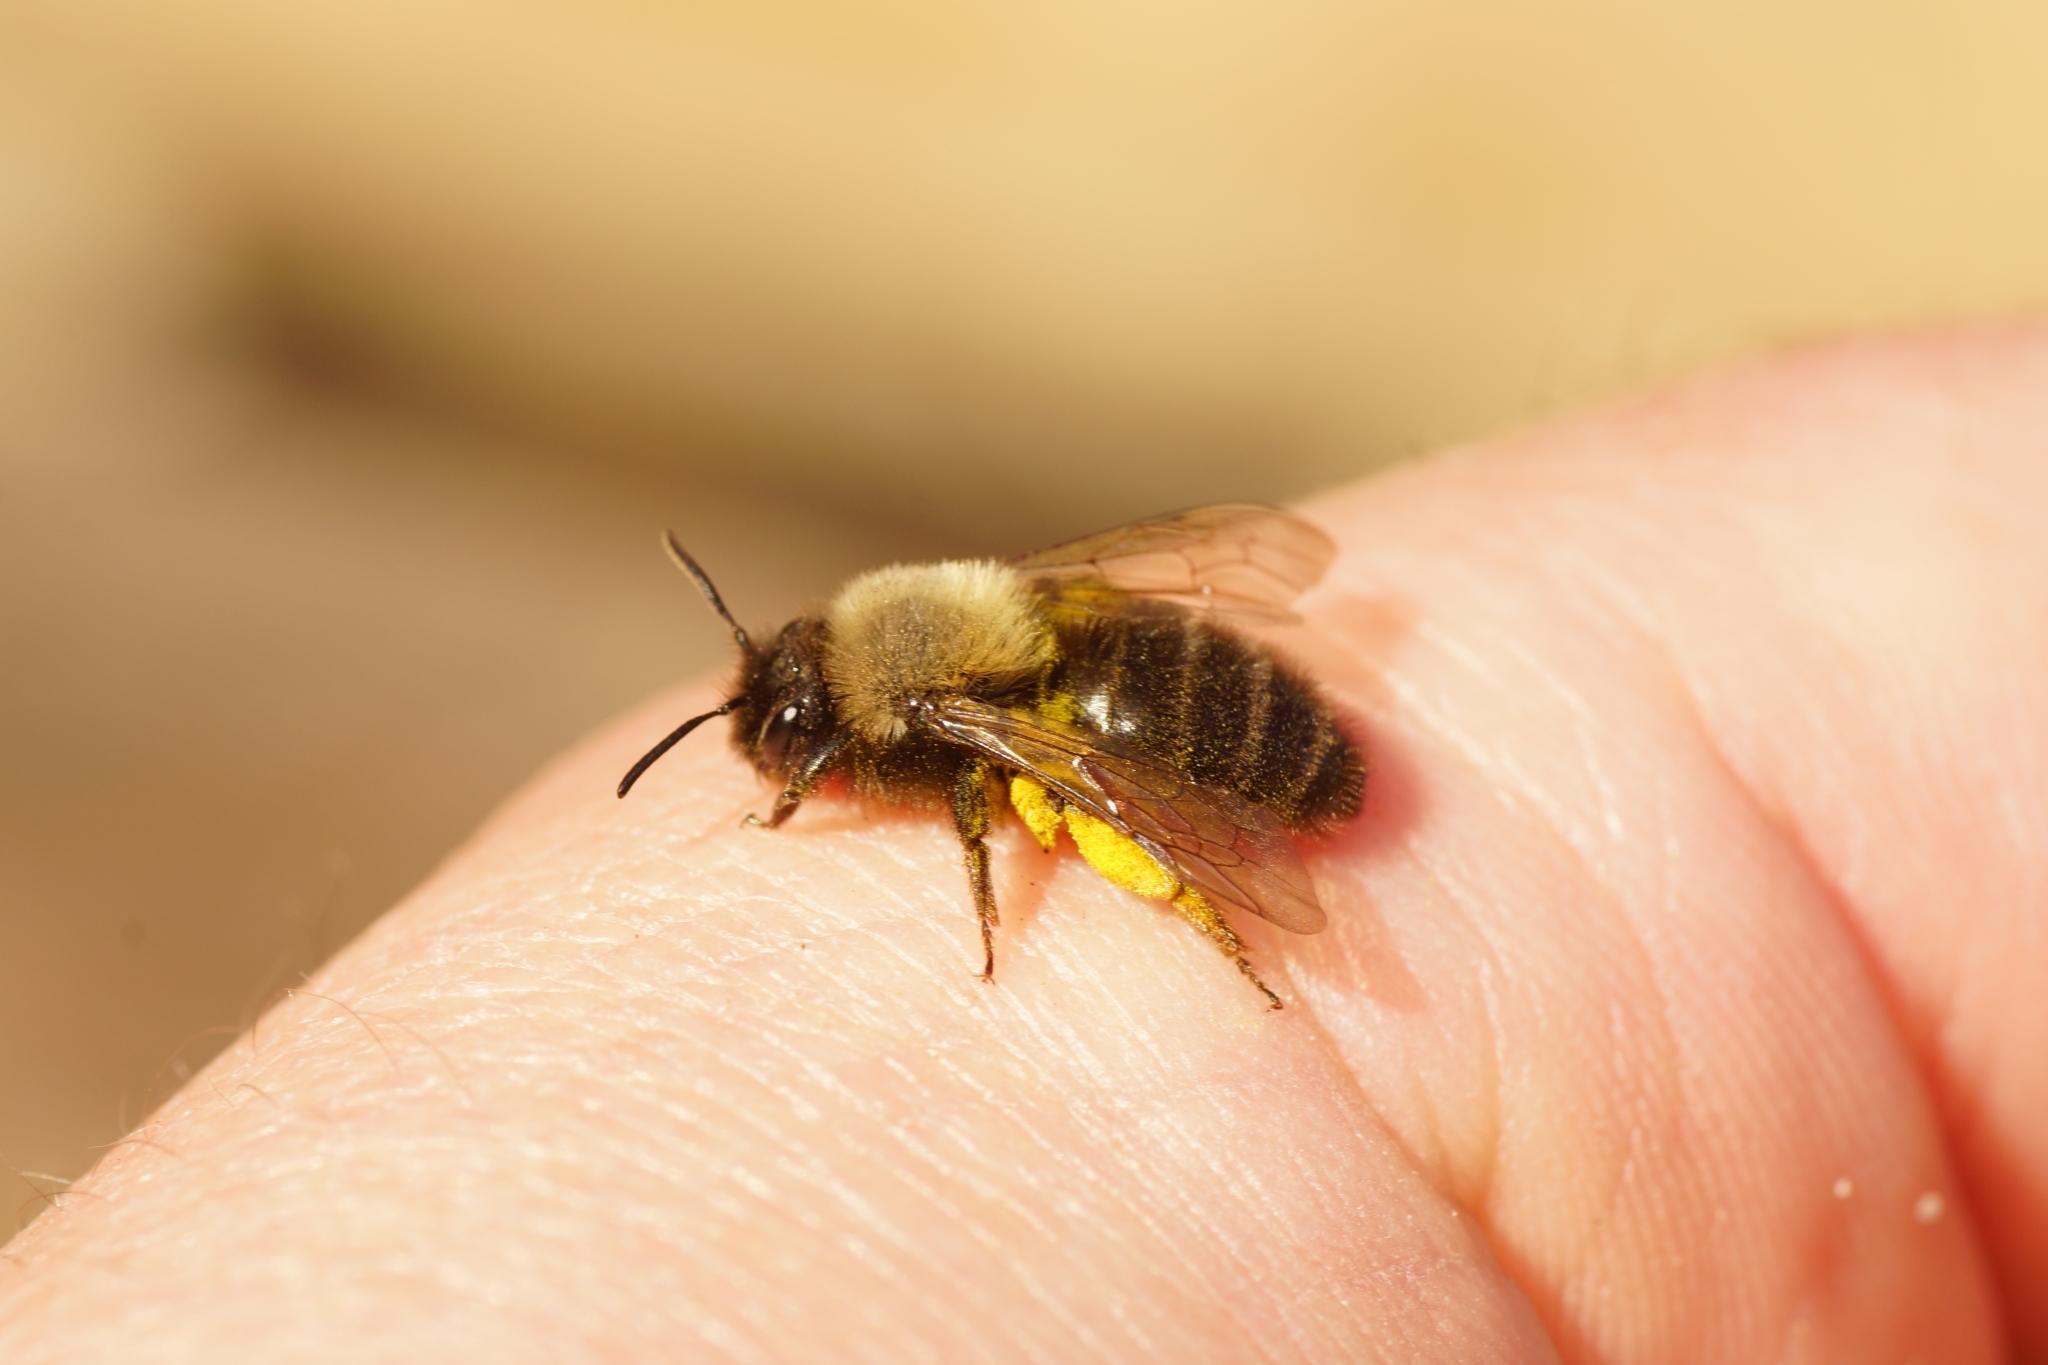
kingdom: Animalia
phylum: Arthropoda
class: Insecta
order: Hymenoptera
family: Andrenidae
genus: Andrena
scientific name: Andrena clarkella
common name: Clarke's mining bee
